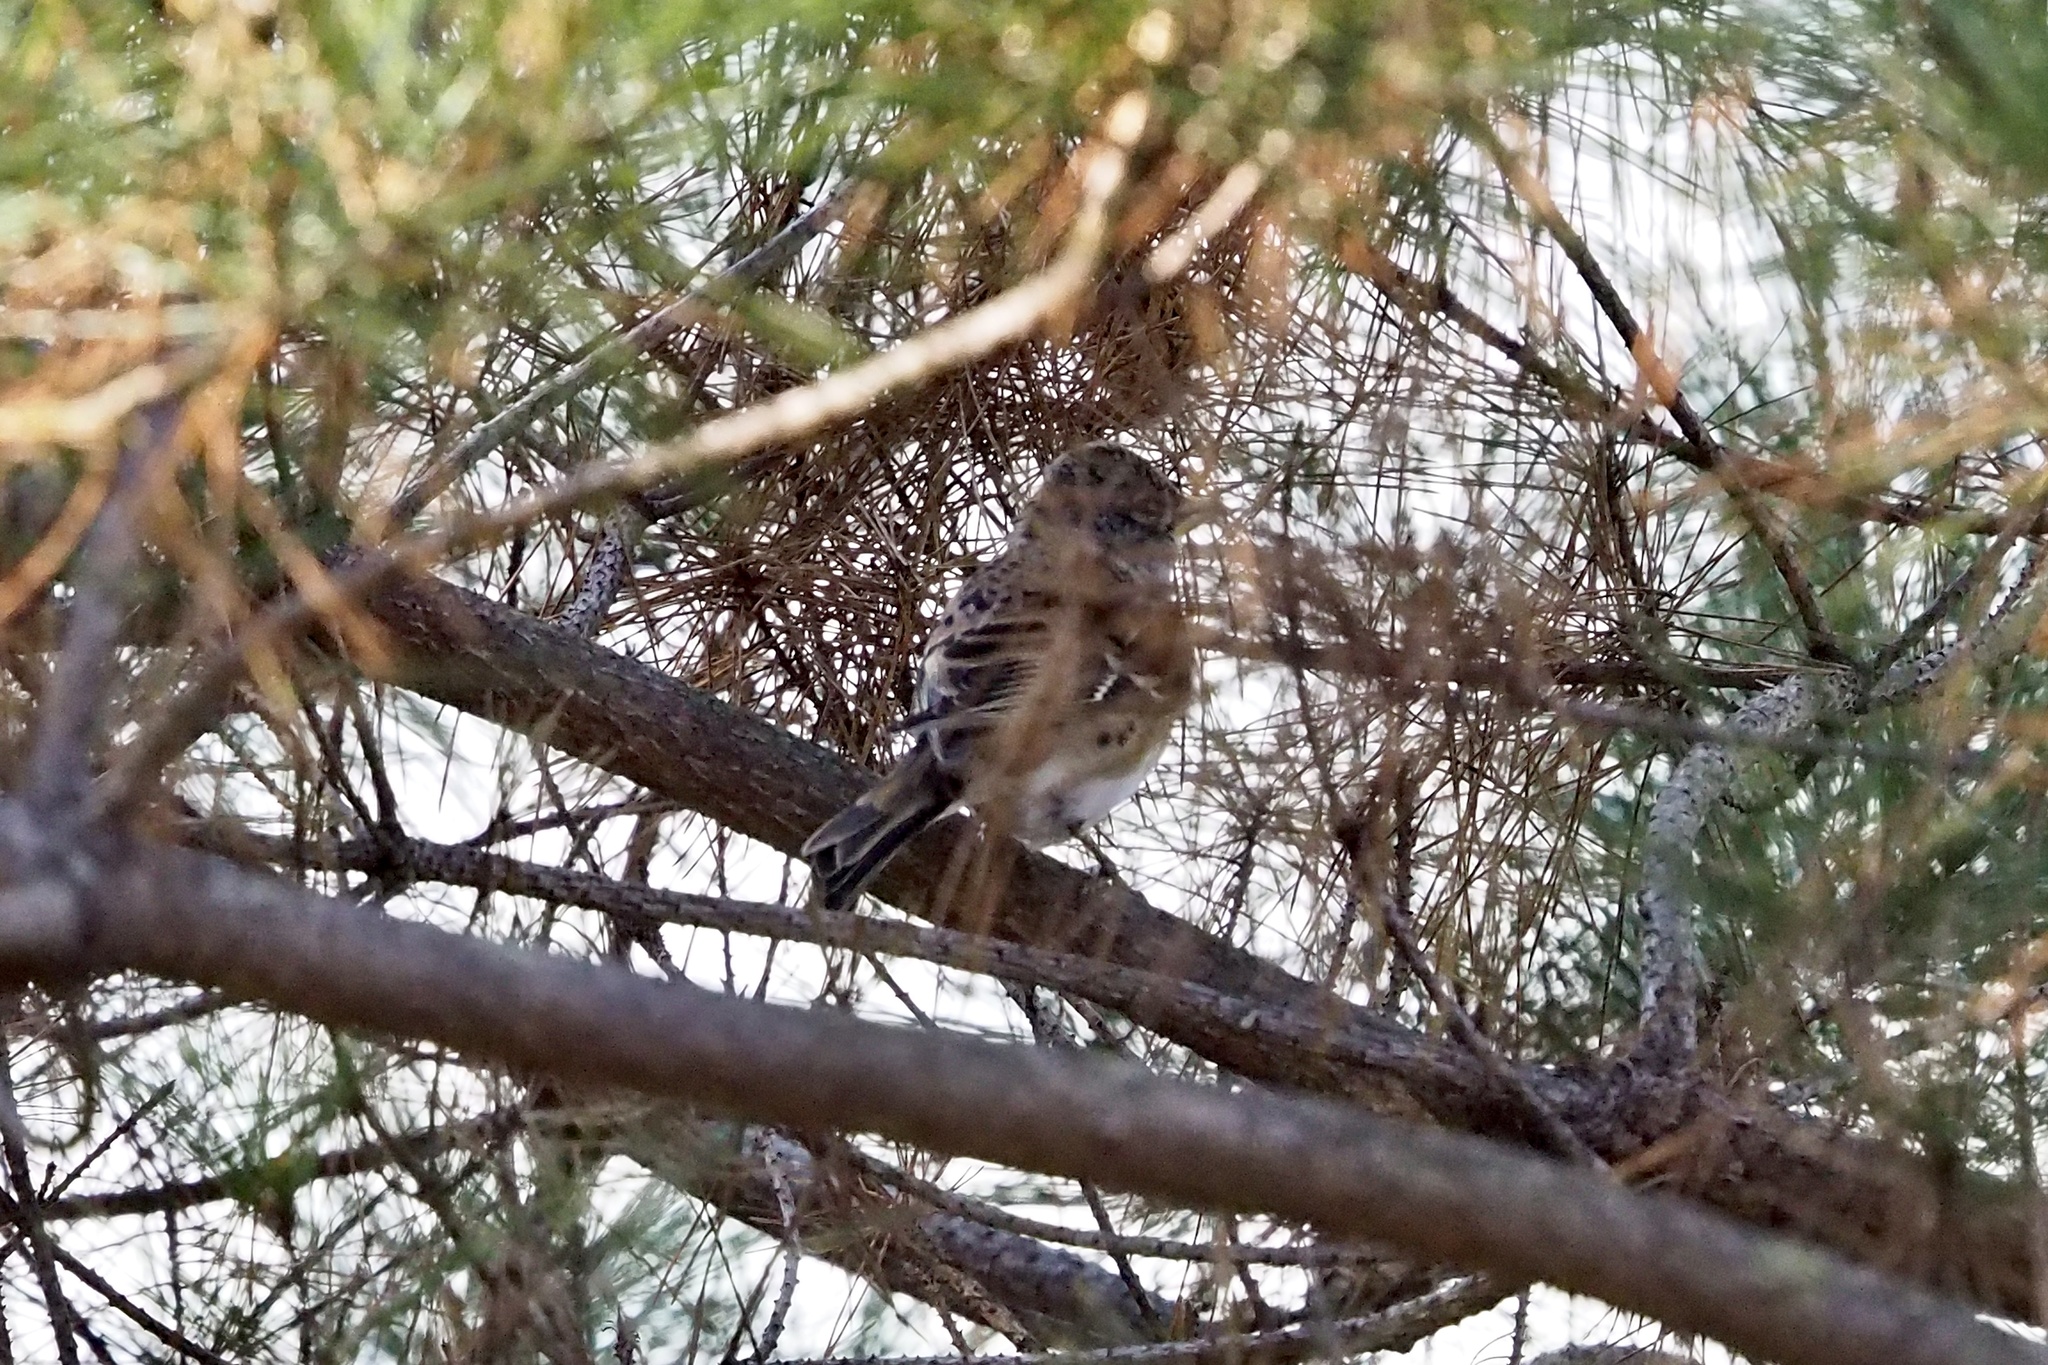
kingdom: Animalia
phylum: Chordata
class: Aves
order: Passeriformes
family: Fringillidae
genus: Fringilla
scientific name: Fringilla montifringilla
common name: Brambling
